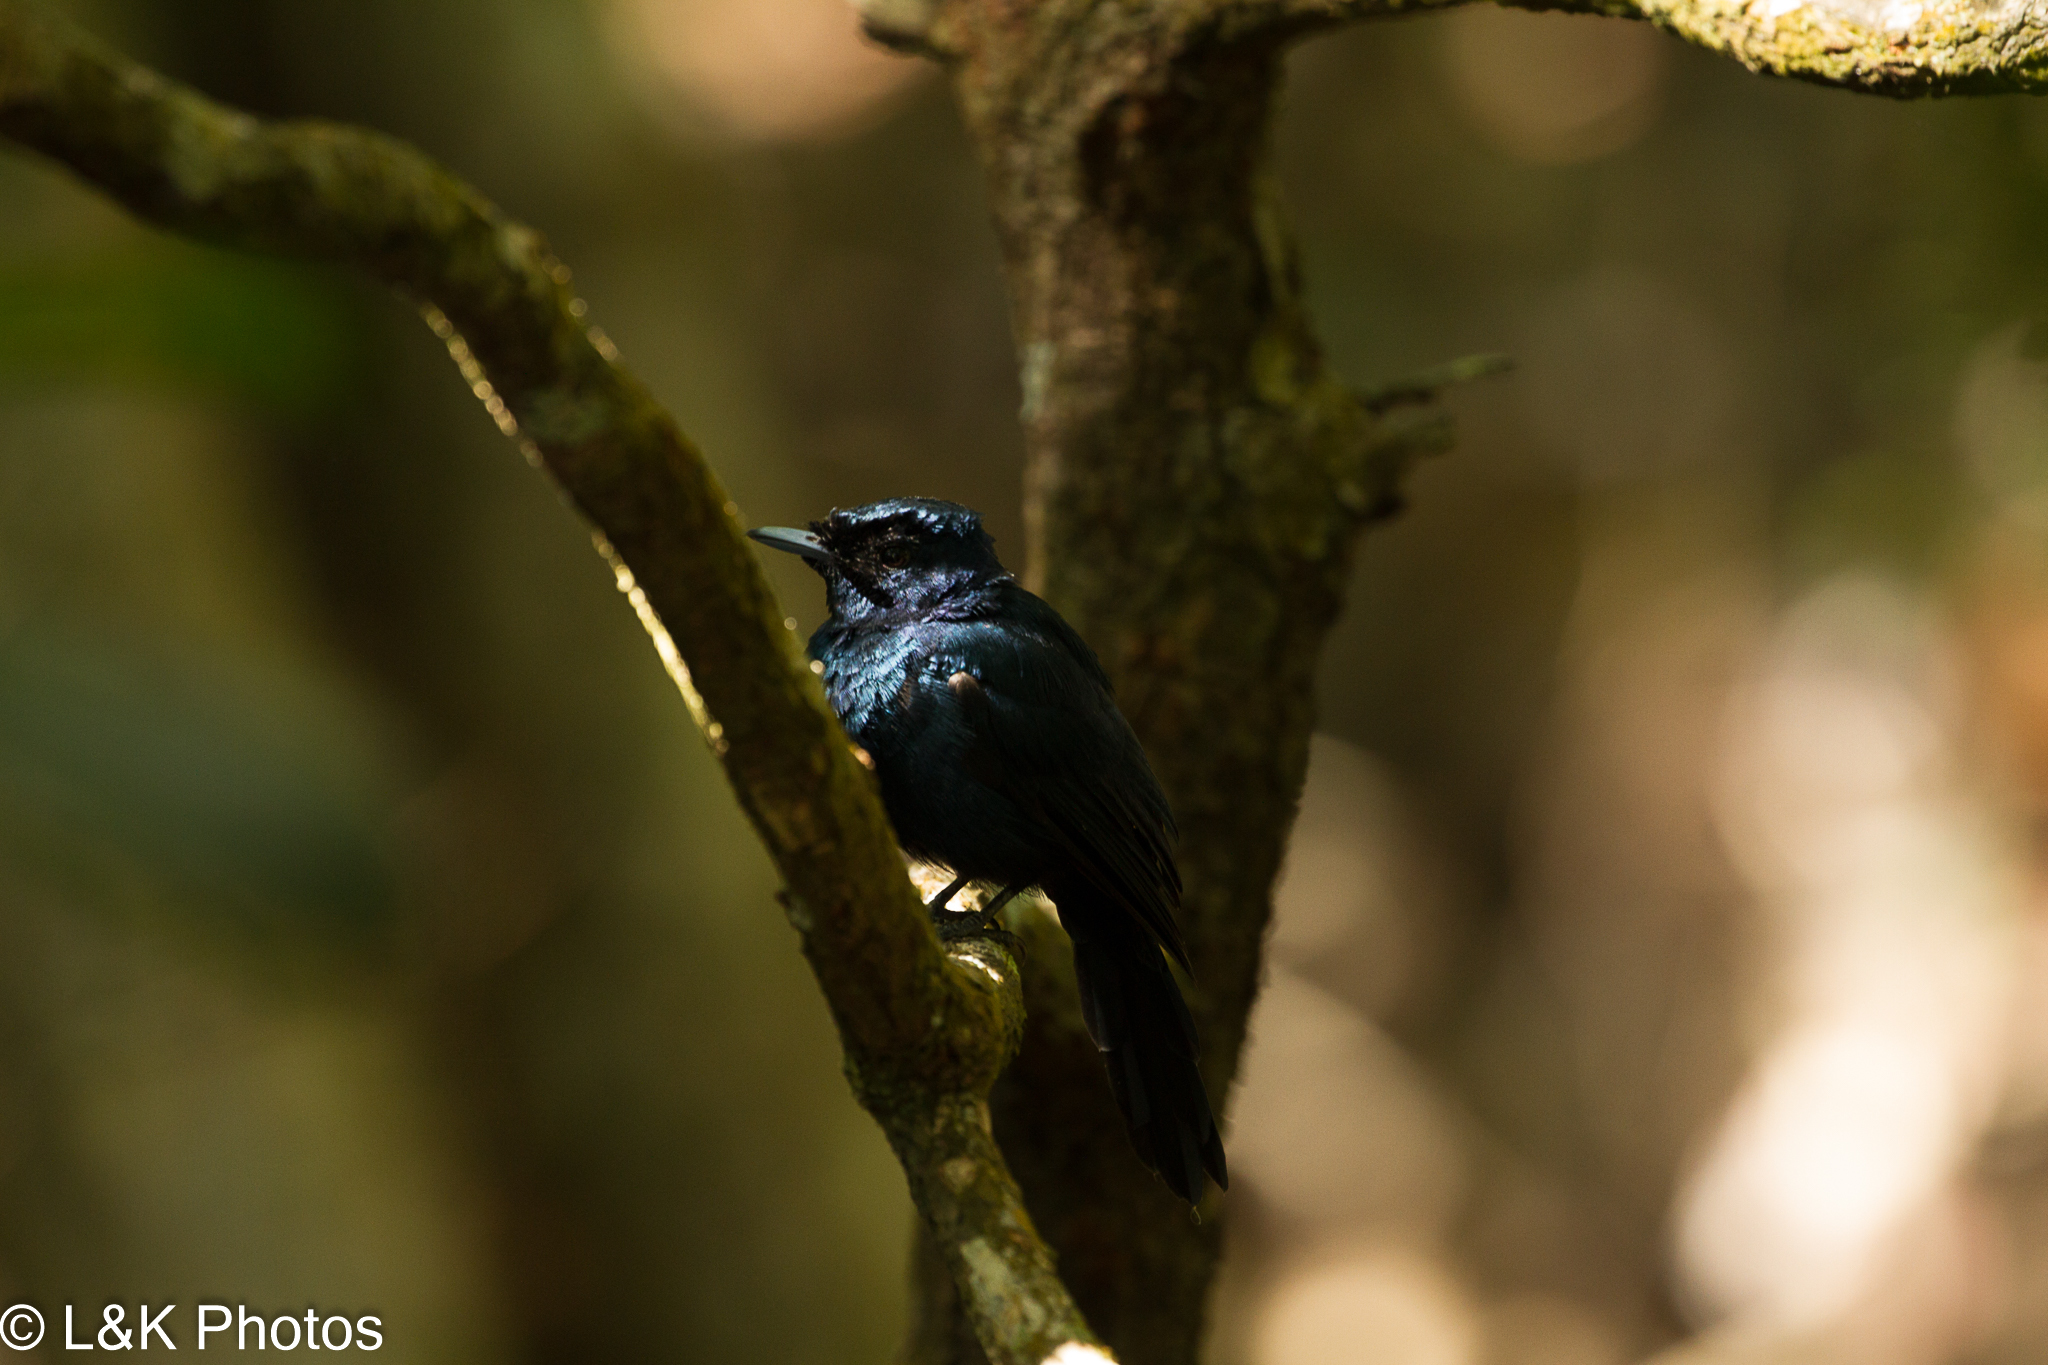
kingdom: Animalia
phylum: Chordata
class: Aves
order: Passeriformes
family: Monarchidae
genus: Myiagra
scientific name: Myiagra alecto
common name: Shining flycatcher
